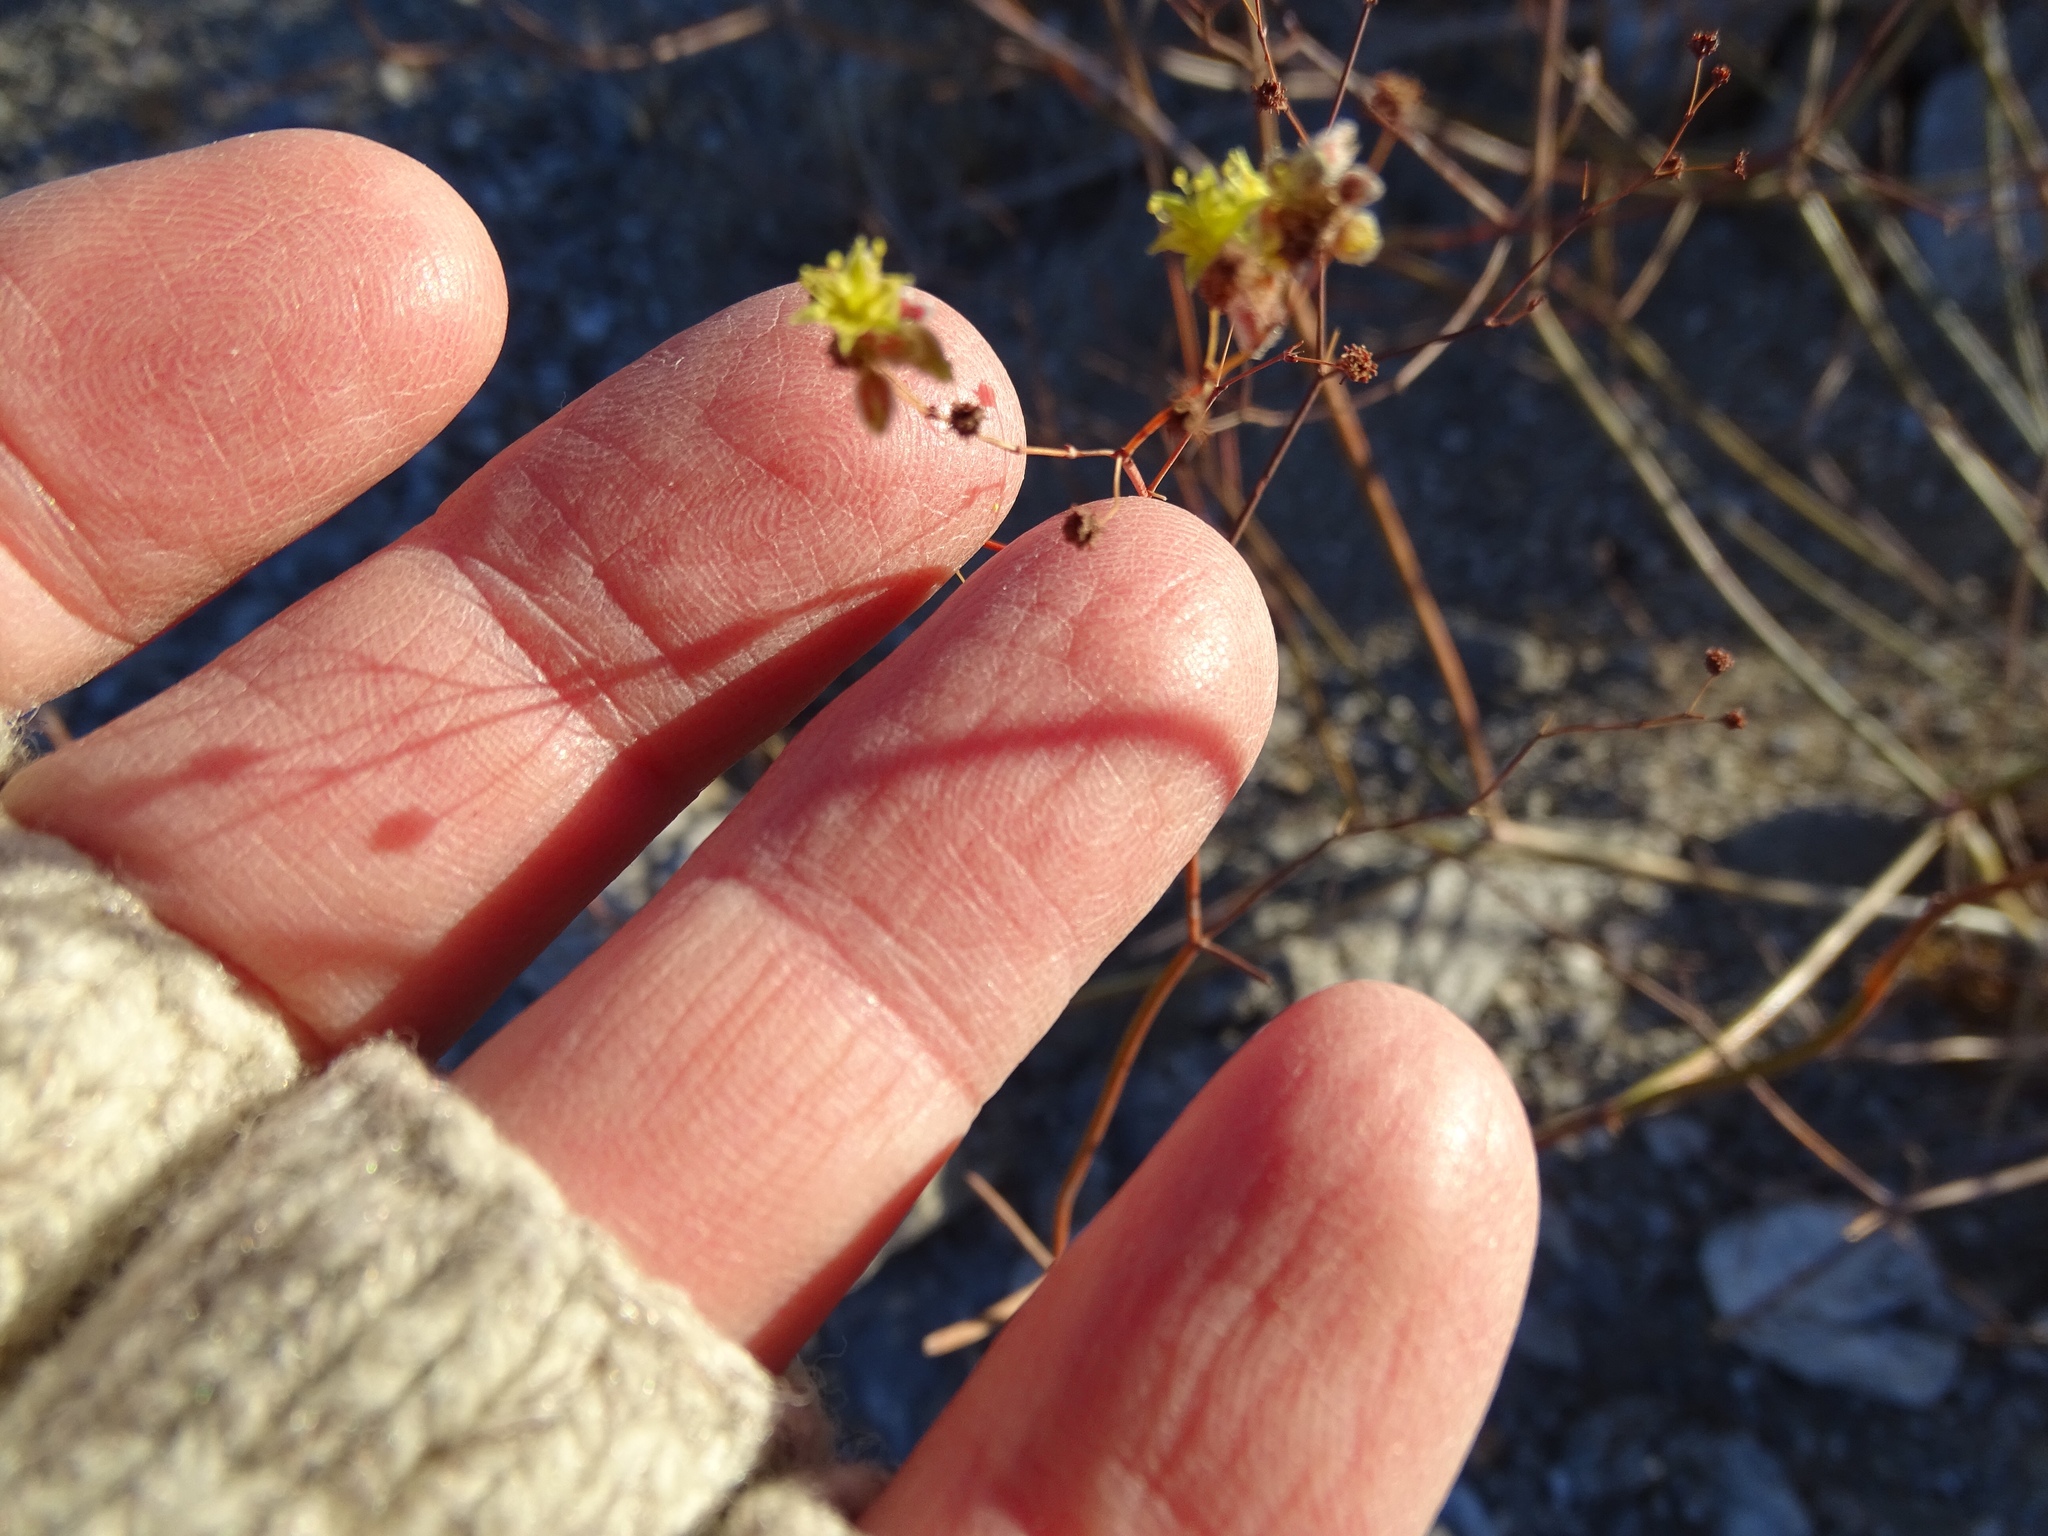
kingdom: Plantae
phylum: Tracheophyta
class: Magnoliopsida
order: Caryophyllales
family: Polygonaceae
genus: Eriogonum
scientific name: Eriogonum inflatum
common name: Desert trumpet
